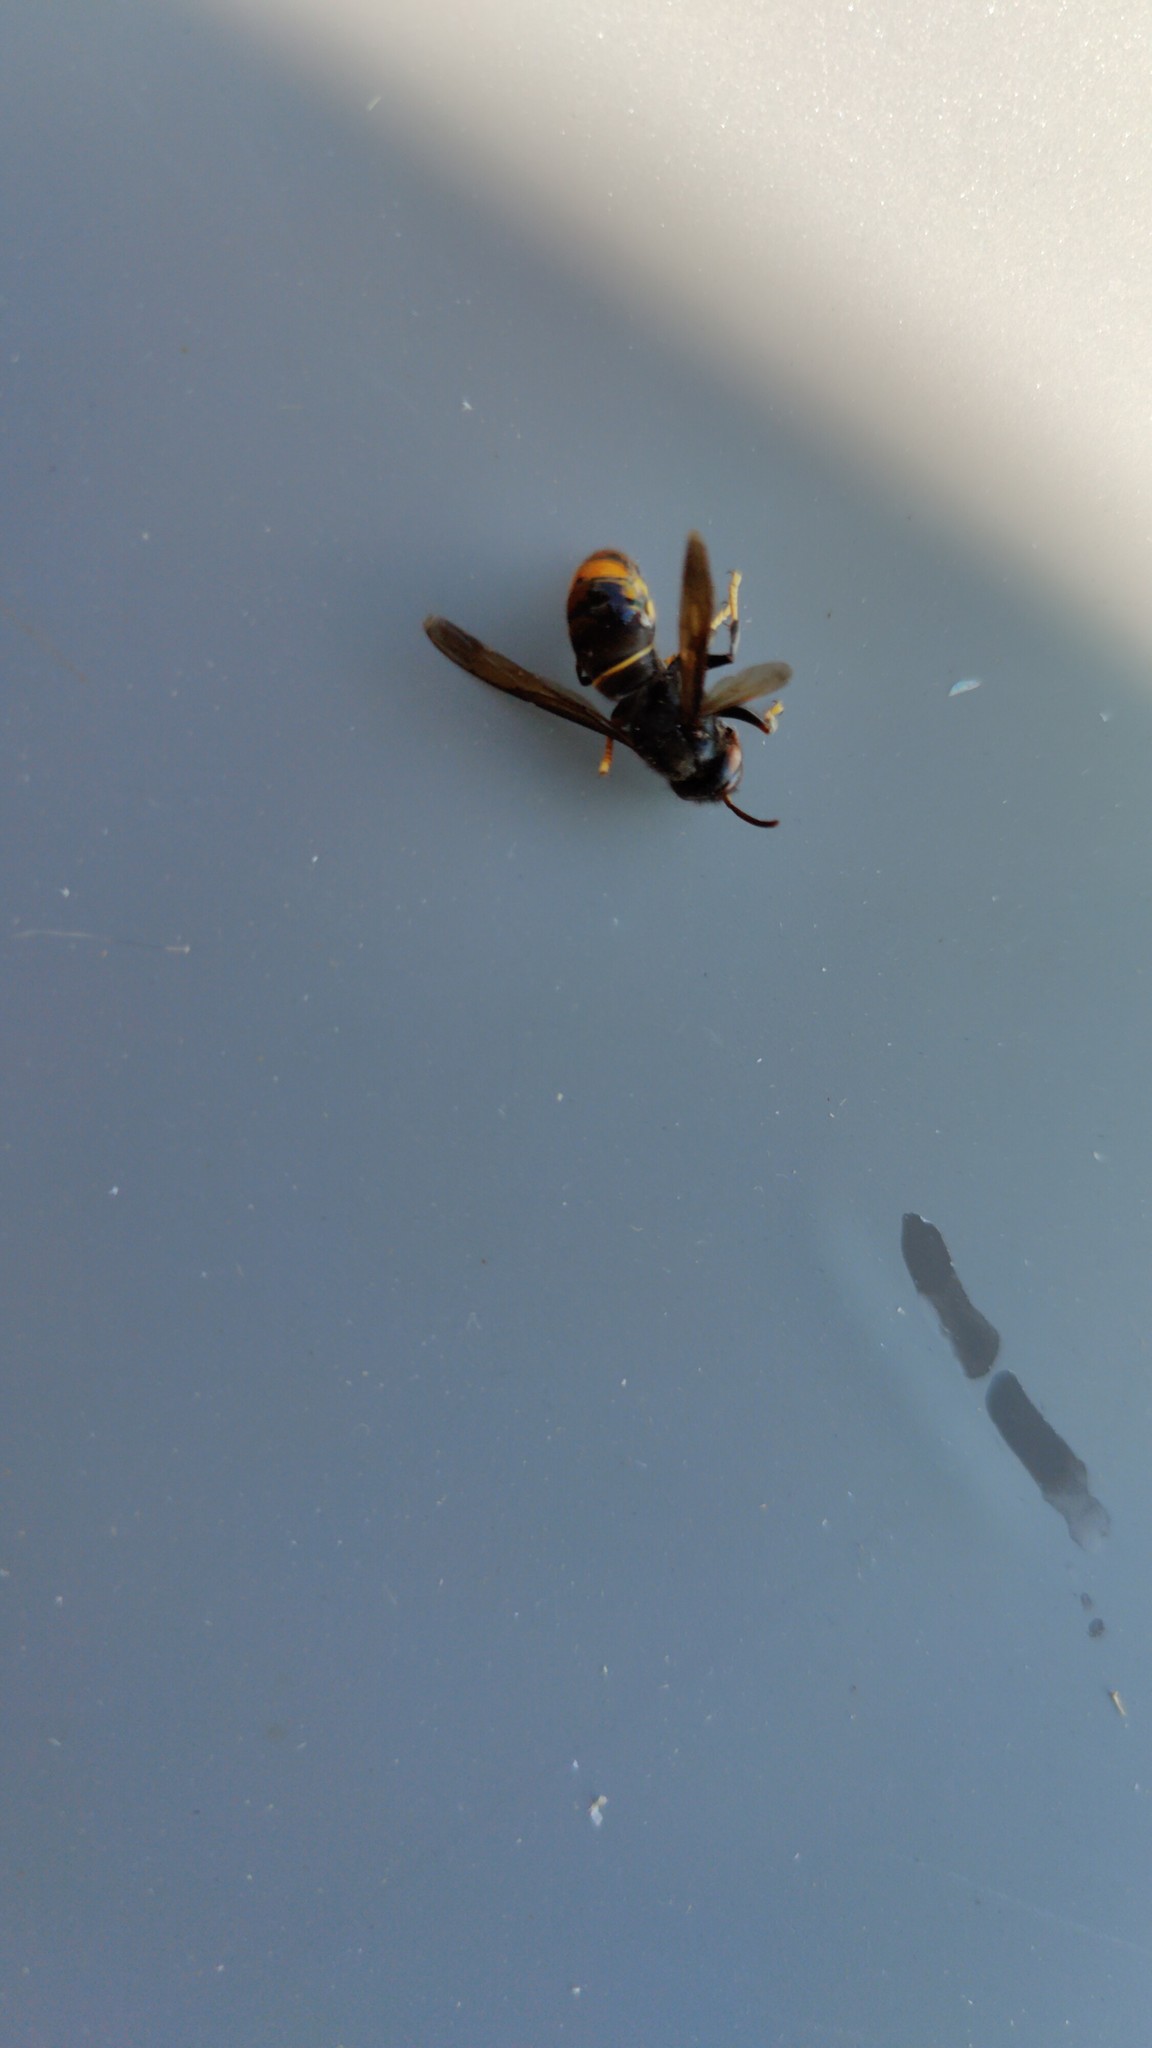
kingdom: Animalia
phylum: Arthropoda
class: Insecta
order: Hymenoptera
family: Vespidae
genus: Vespa
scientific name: Vespa velutina
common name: Asian hornet
